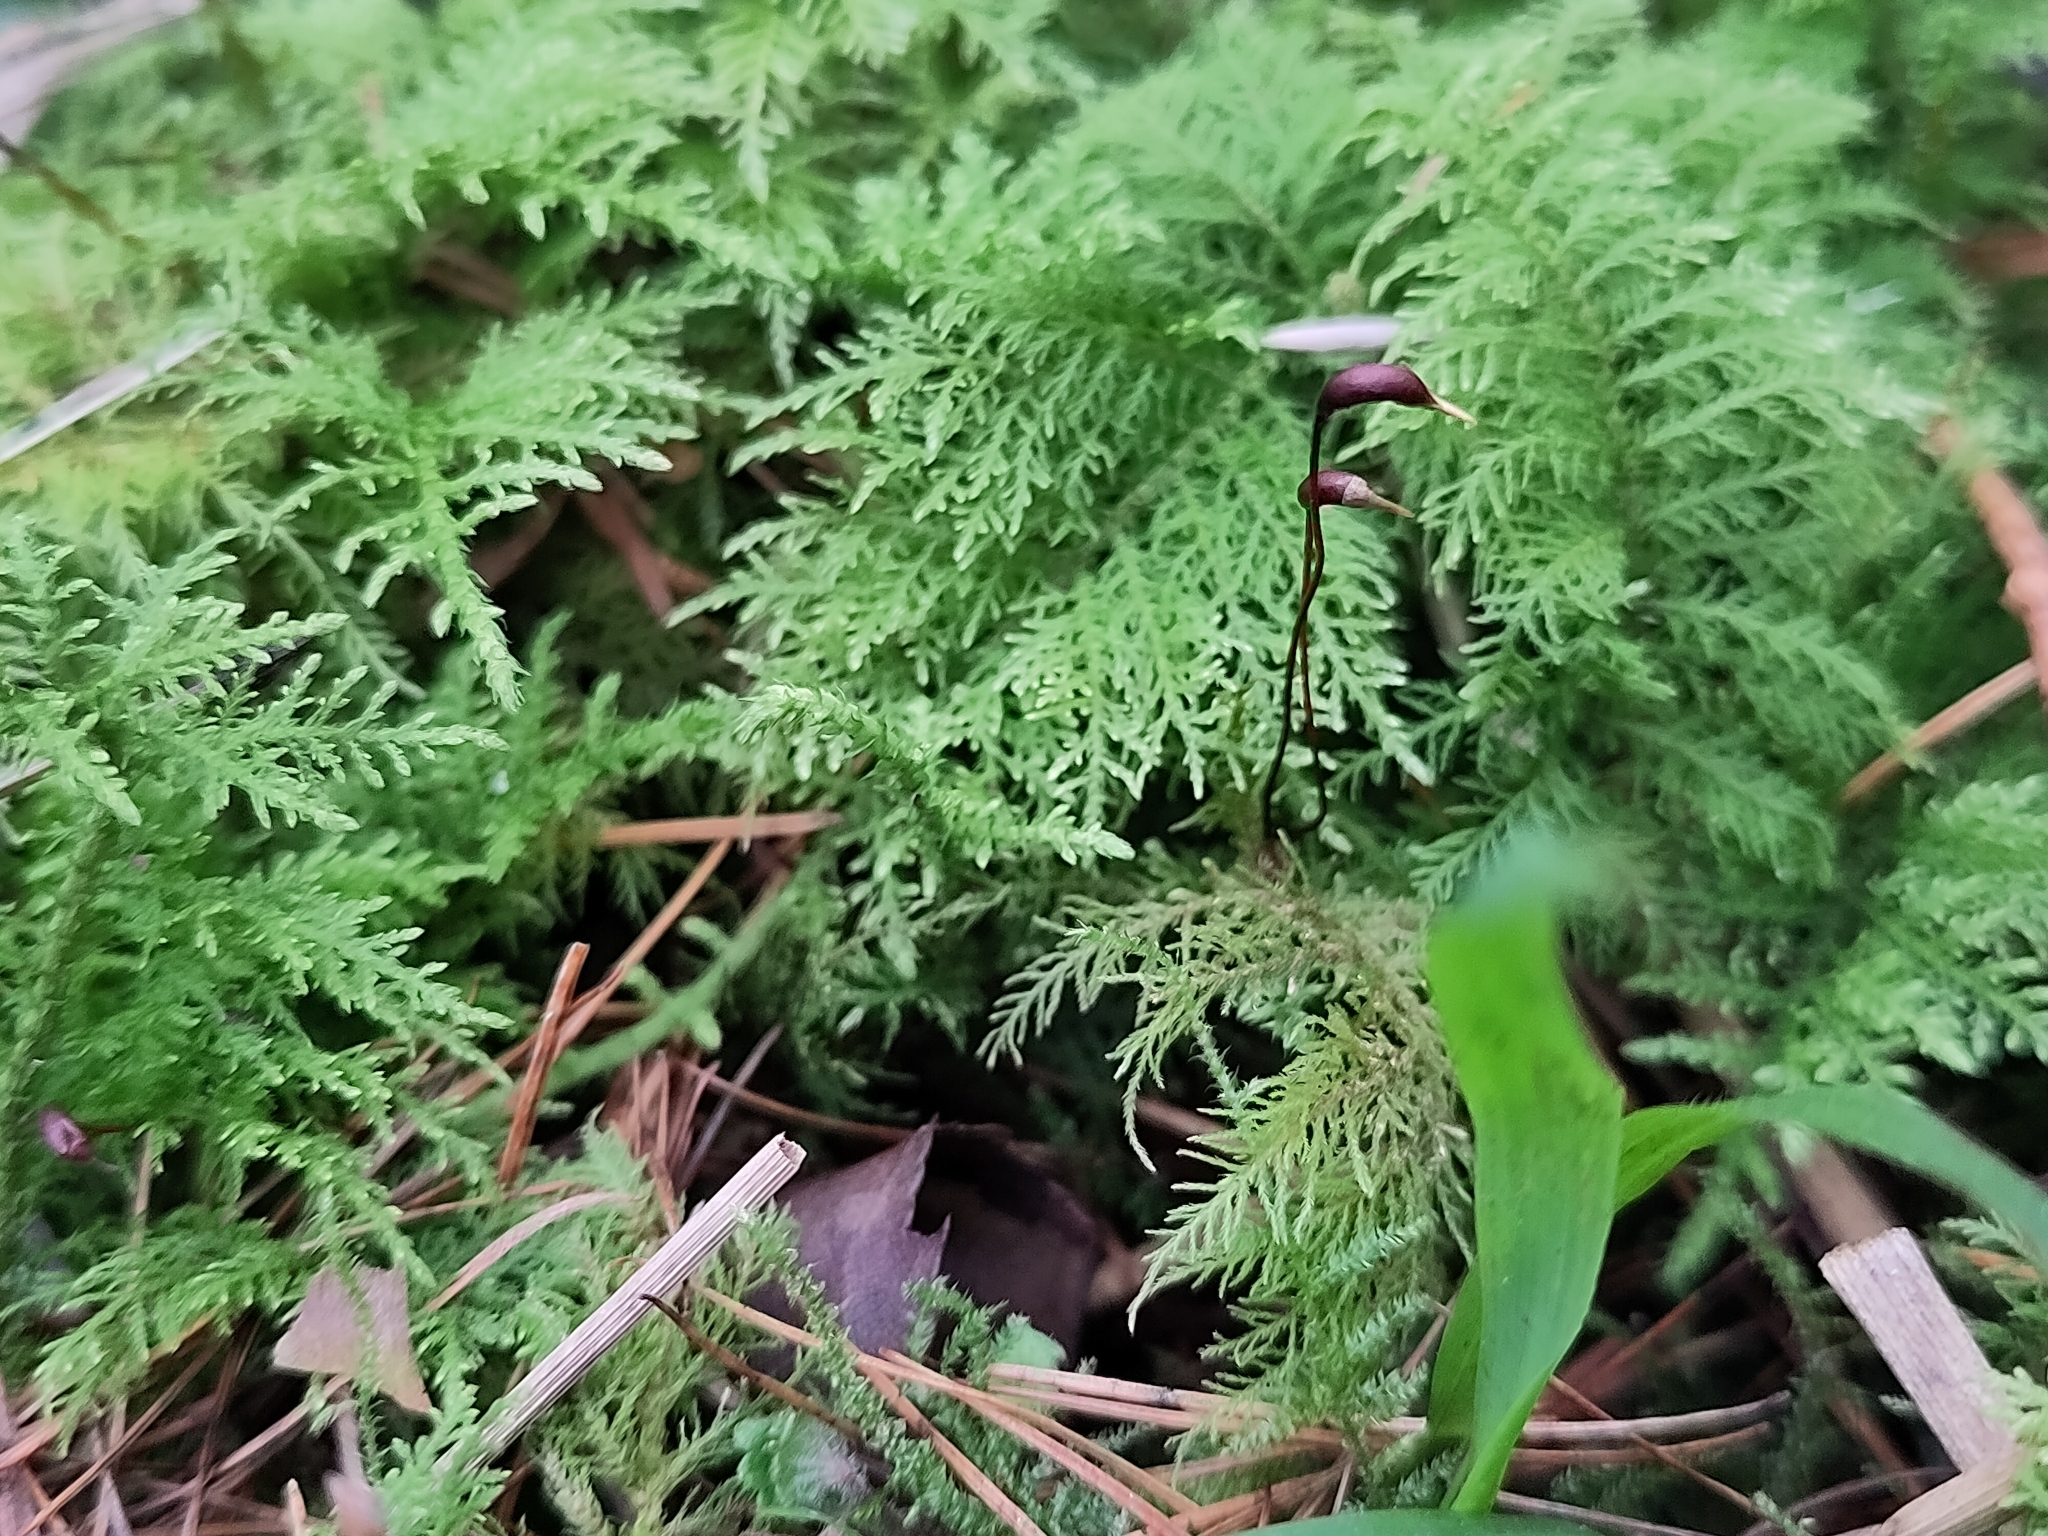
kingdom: Plantae
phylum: Bryophyta
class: Bryopsida
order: Hypnales
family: Thuidiaceae
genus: Thuidium
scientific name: Thuidium tamariscinum
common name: Common tamarisk-moss
